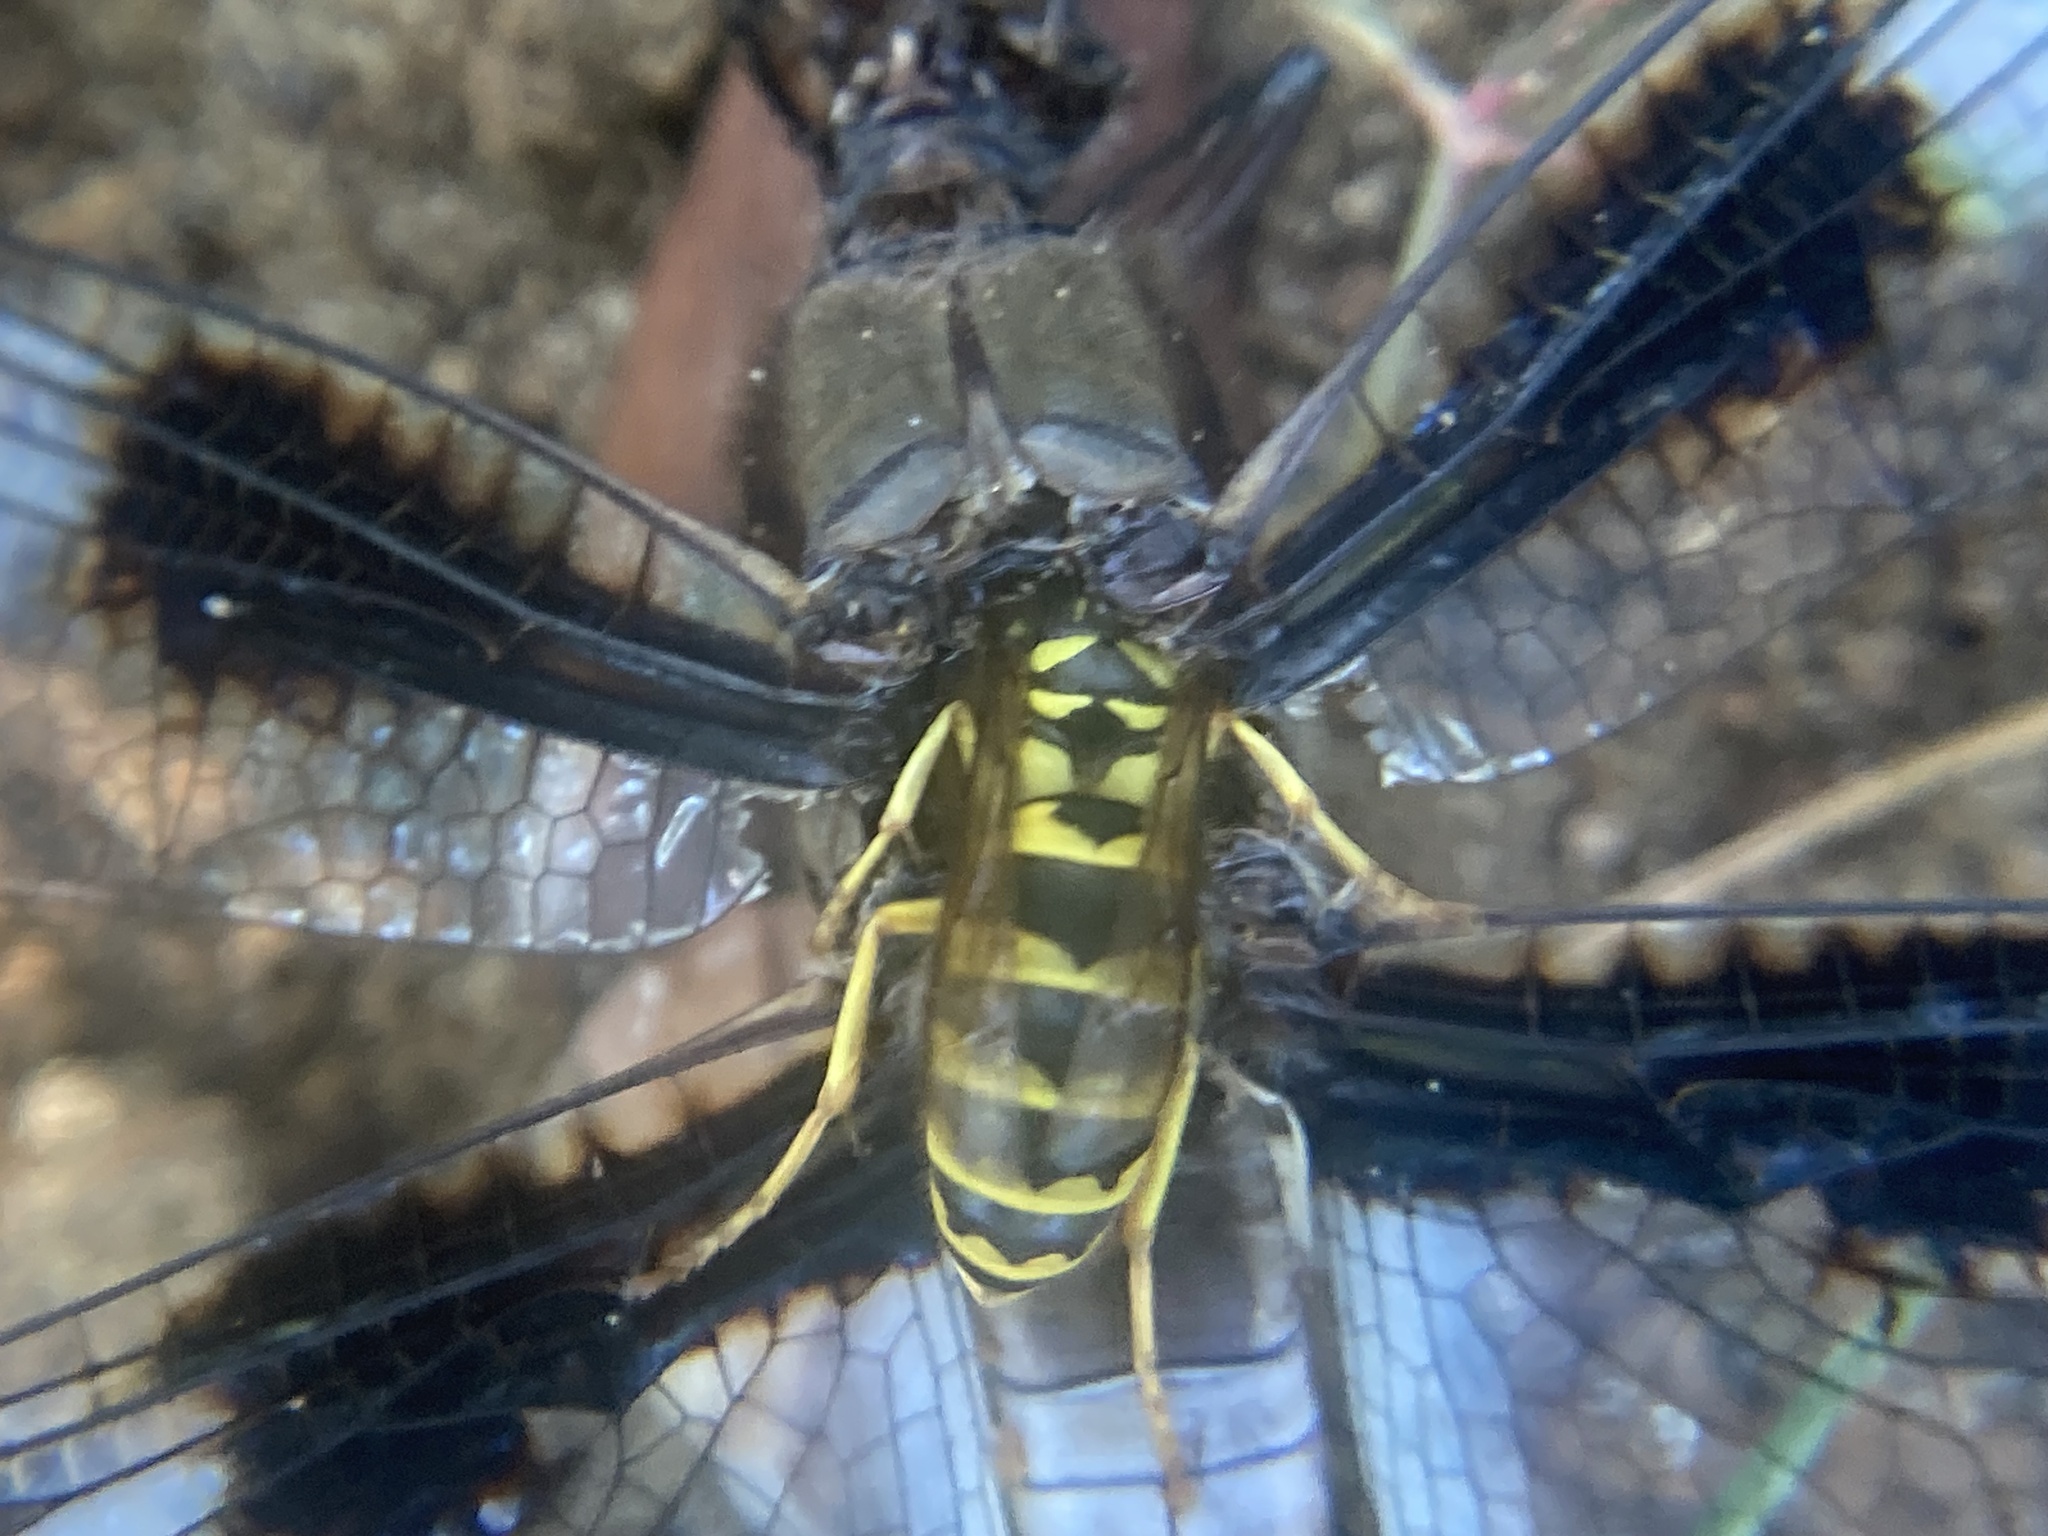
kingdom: Animalia
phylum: Arthropoda
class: Insecta
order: Hymenoptera
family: Vespidae
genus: Vespula
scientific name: Vespula flavopilosa
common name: Downy yellowjacket
